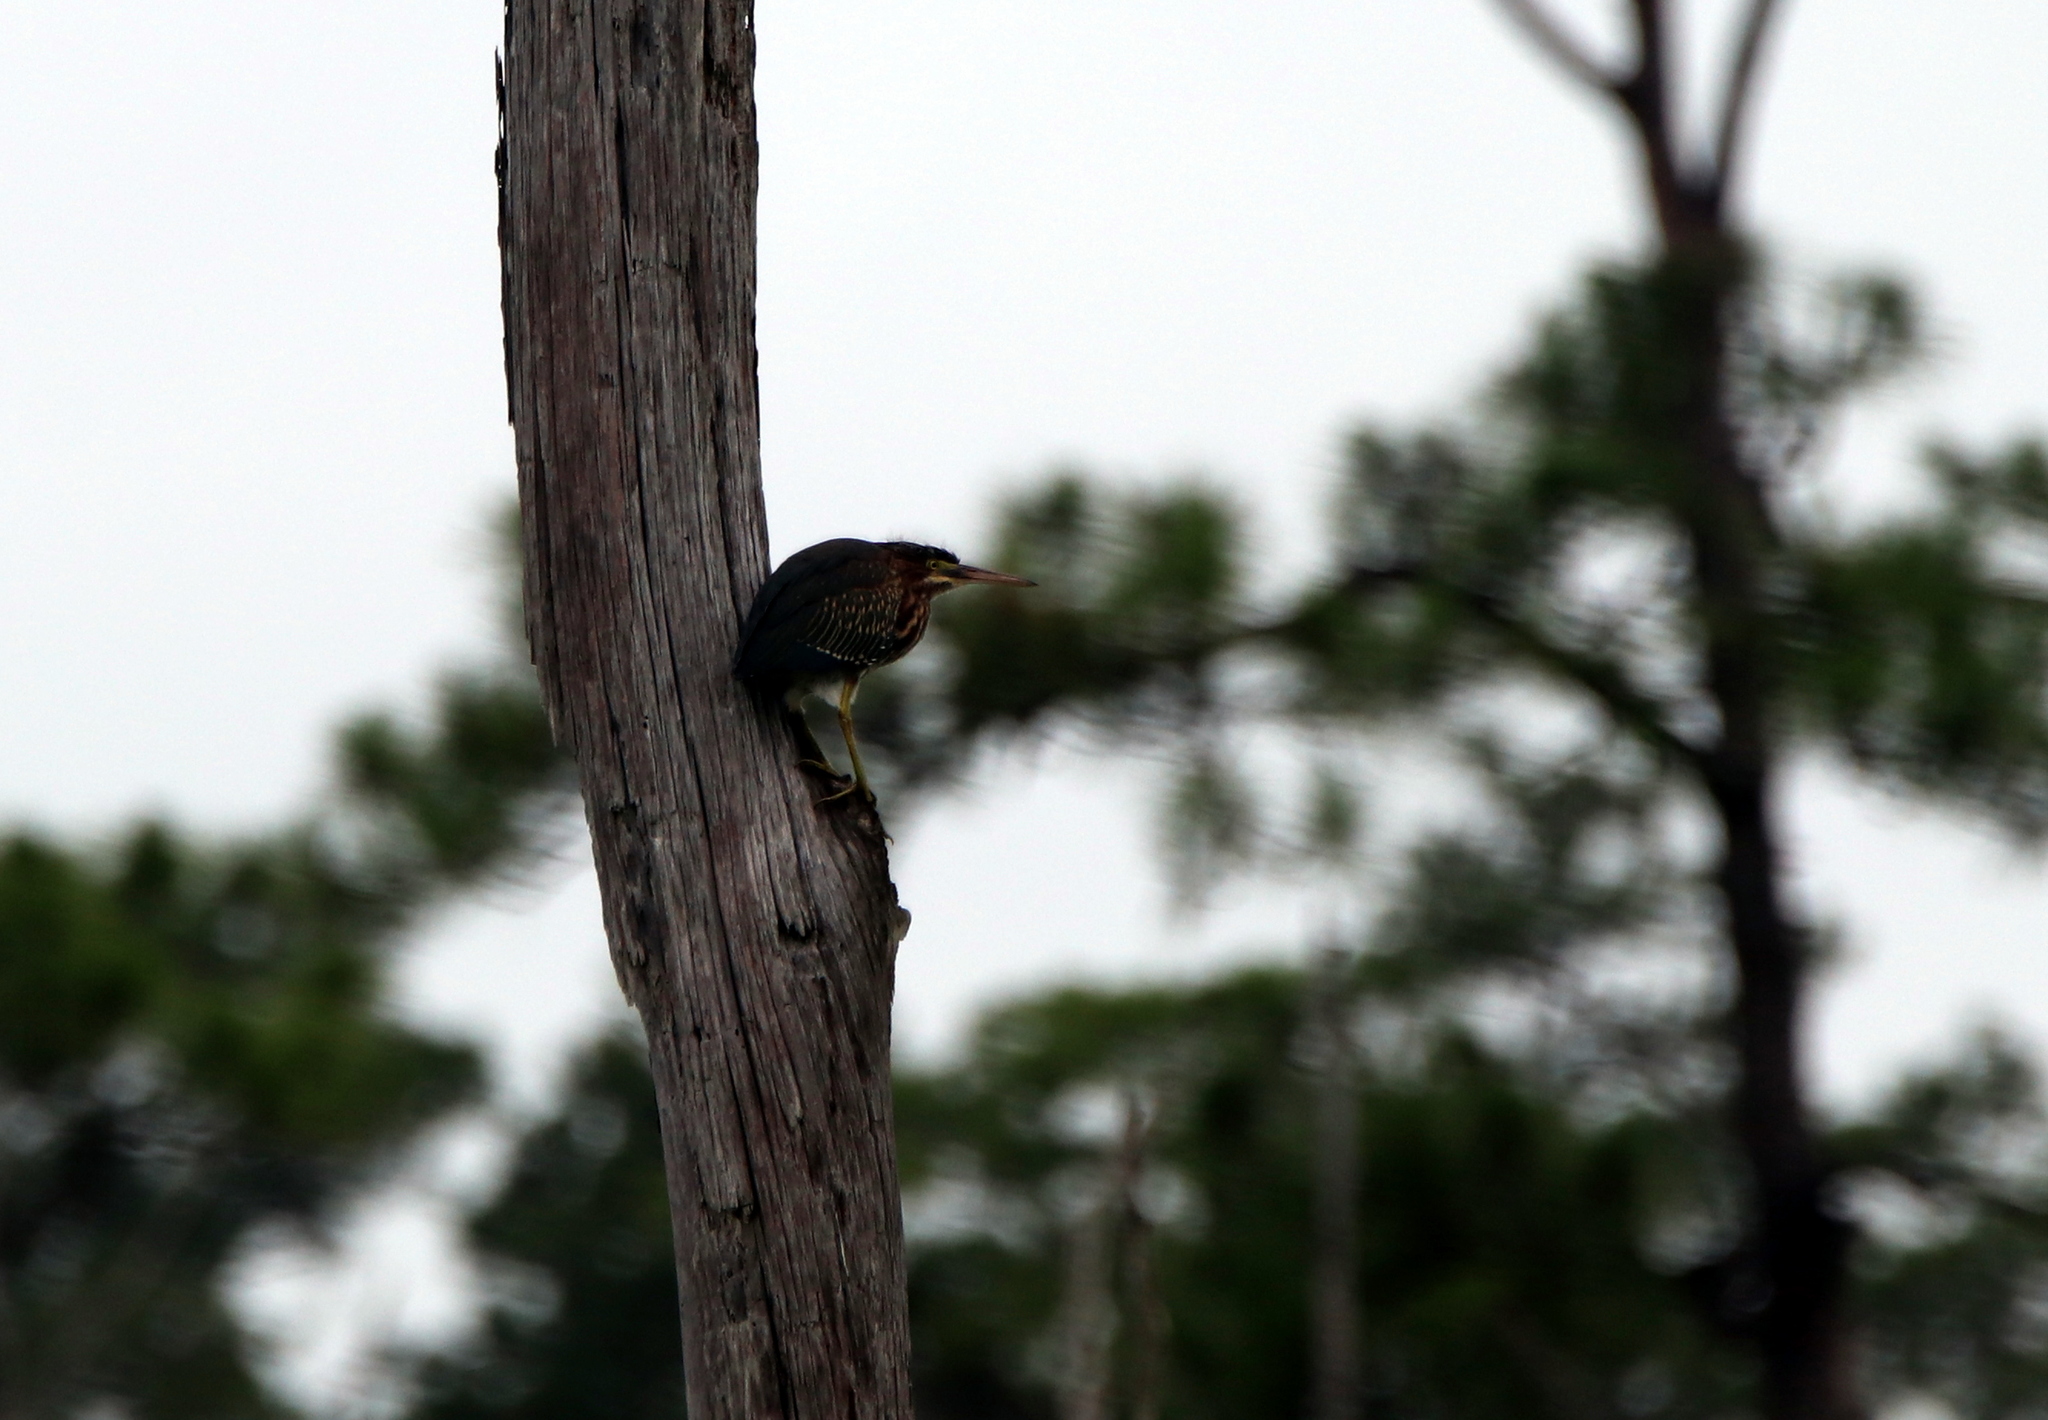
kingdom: Animalia
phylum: Chordata
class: Aves
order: Pelecaniformes
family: Ardeidae
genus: Butorides
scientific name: Butorides virescens
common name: Green heron
